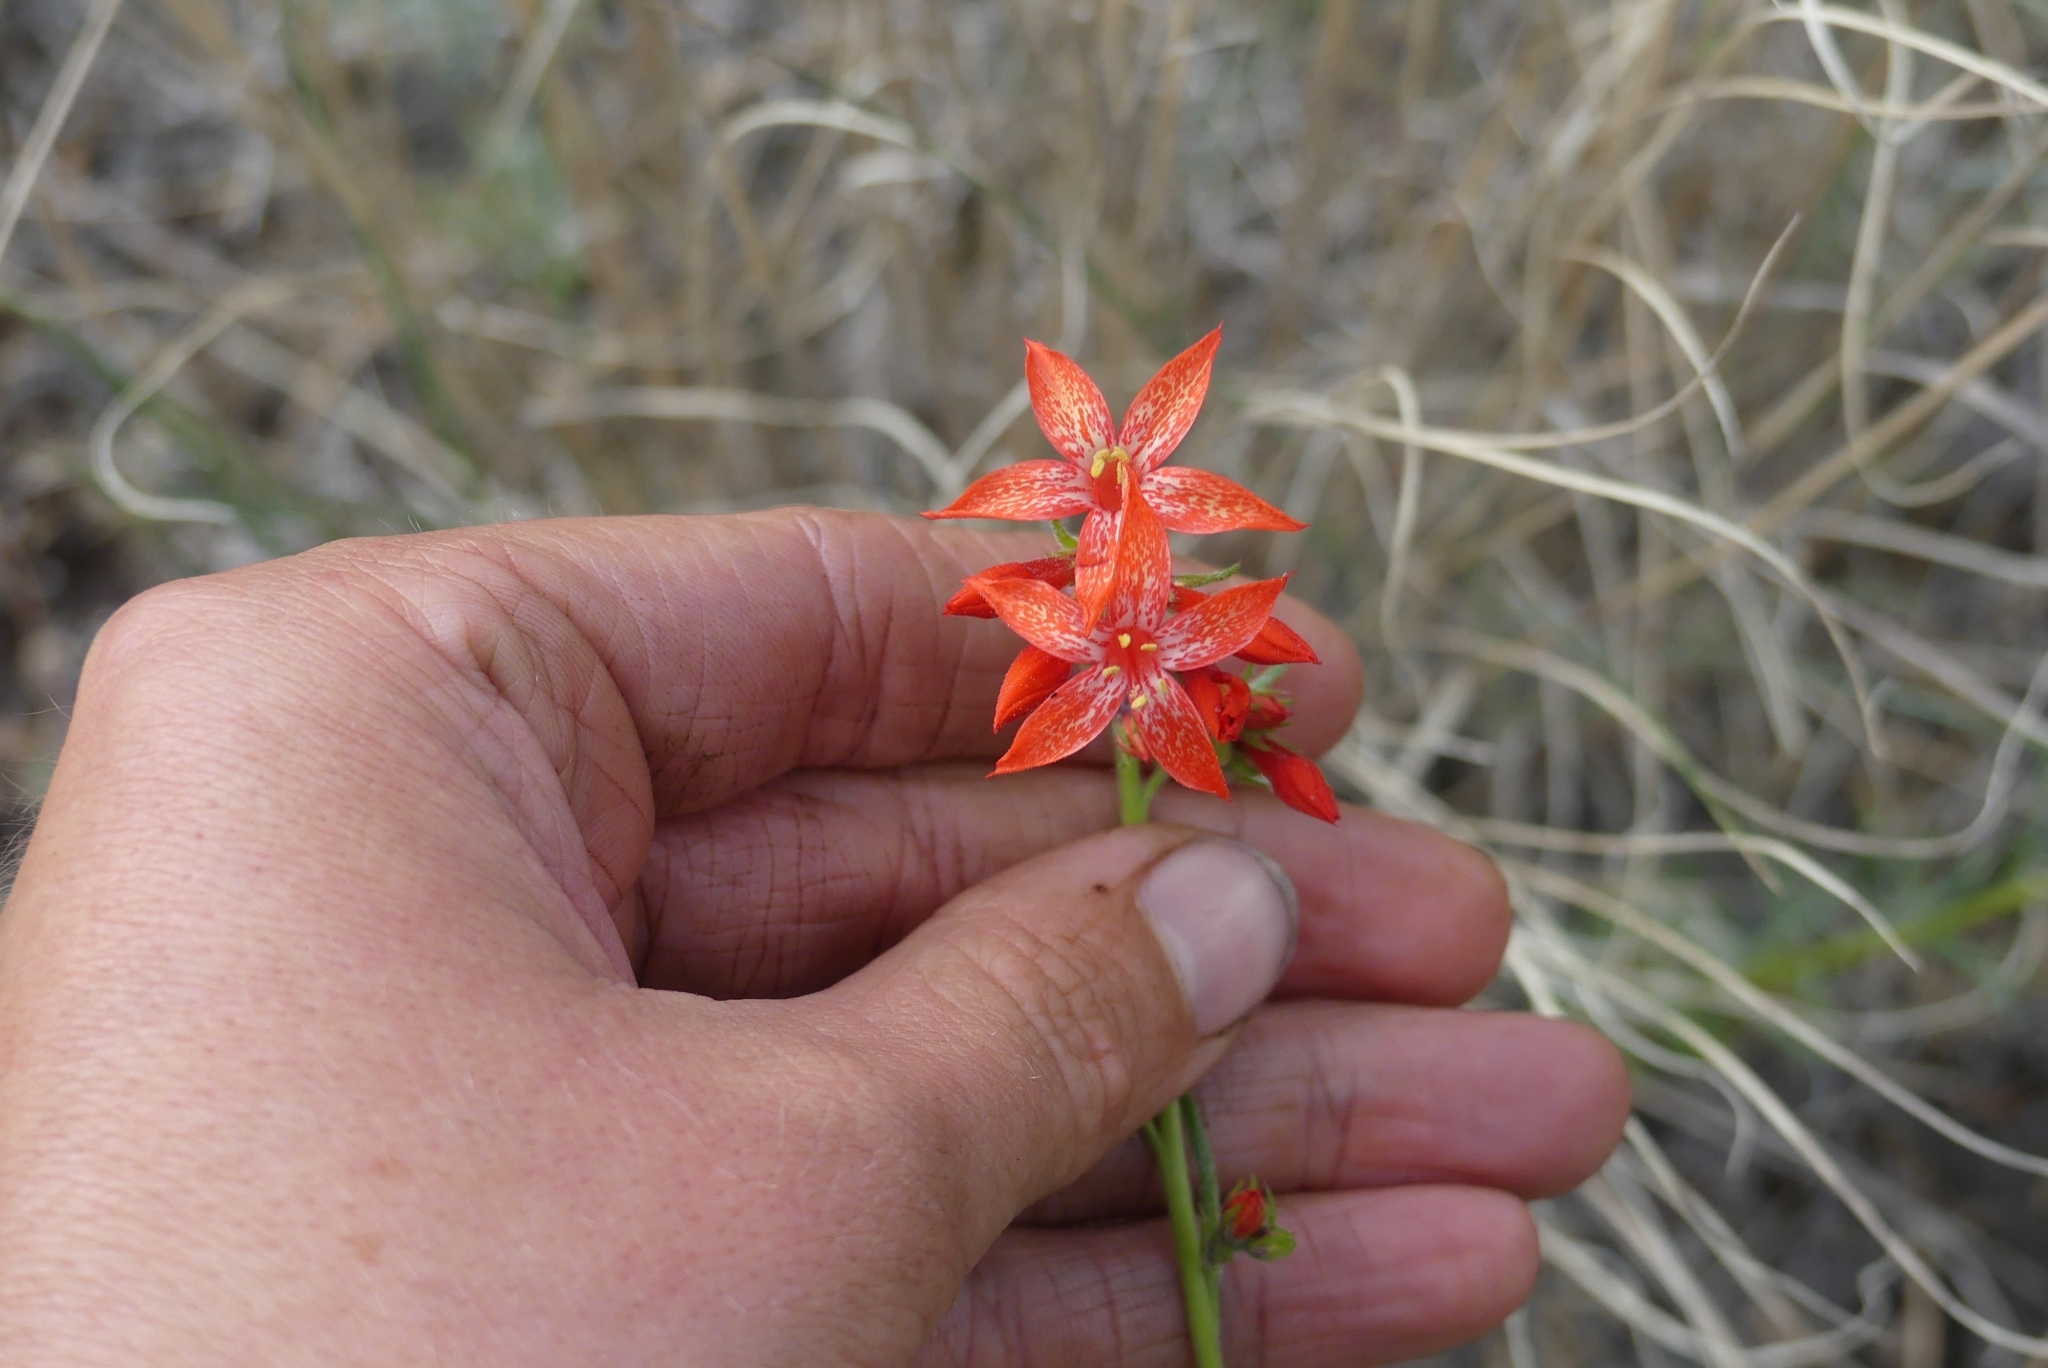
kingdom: Plantae
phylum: Tracheophyta
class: Magnoliopsida
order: Ericales
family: Polemoniaceae
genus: Ipomopsis
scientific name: Ipomopsis aggregata
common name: Scarlet gilia
